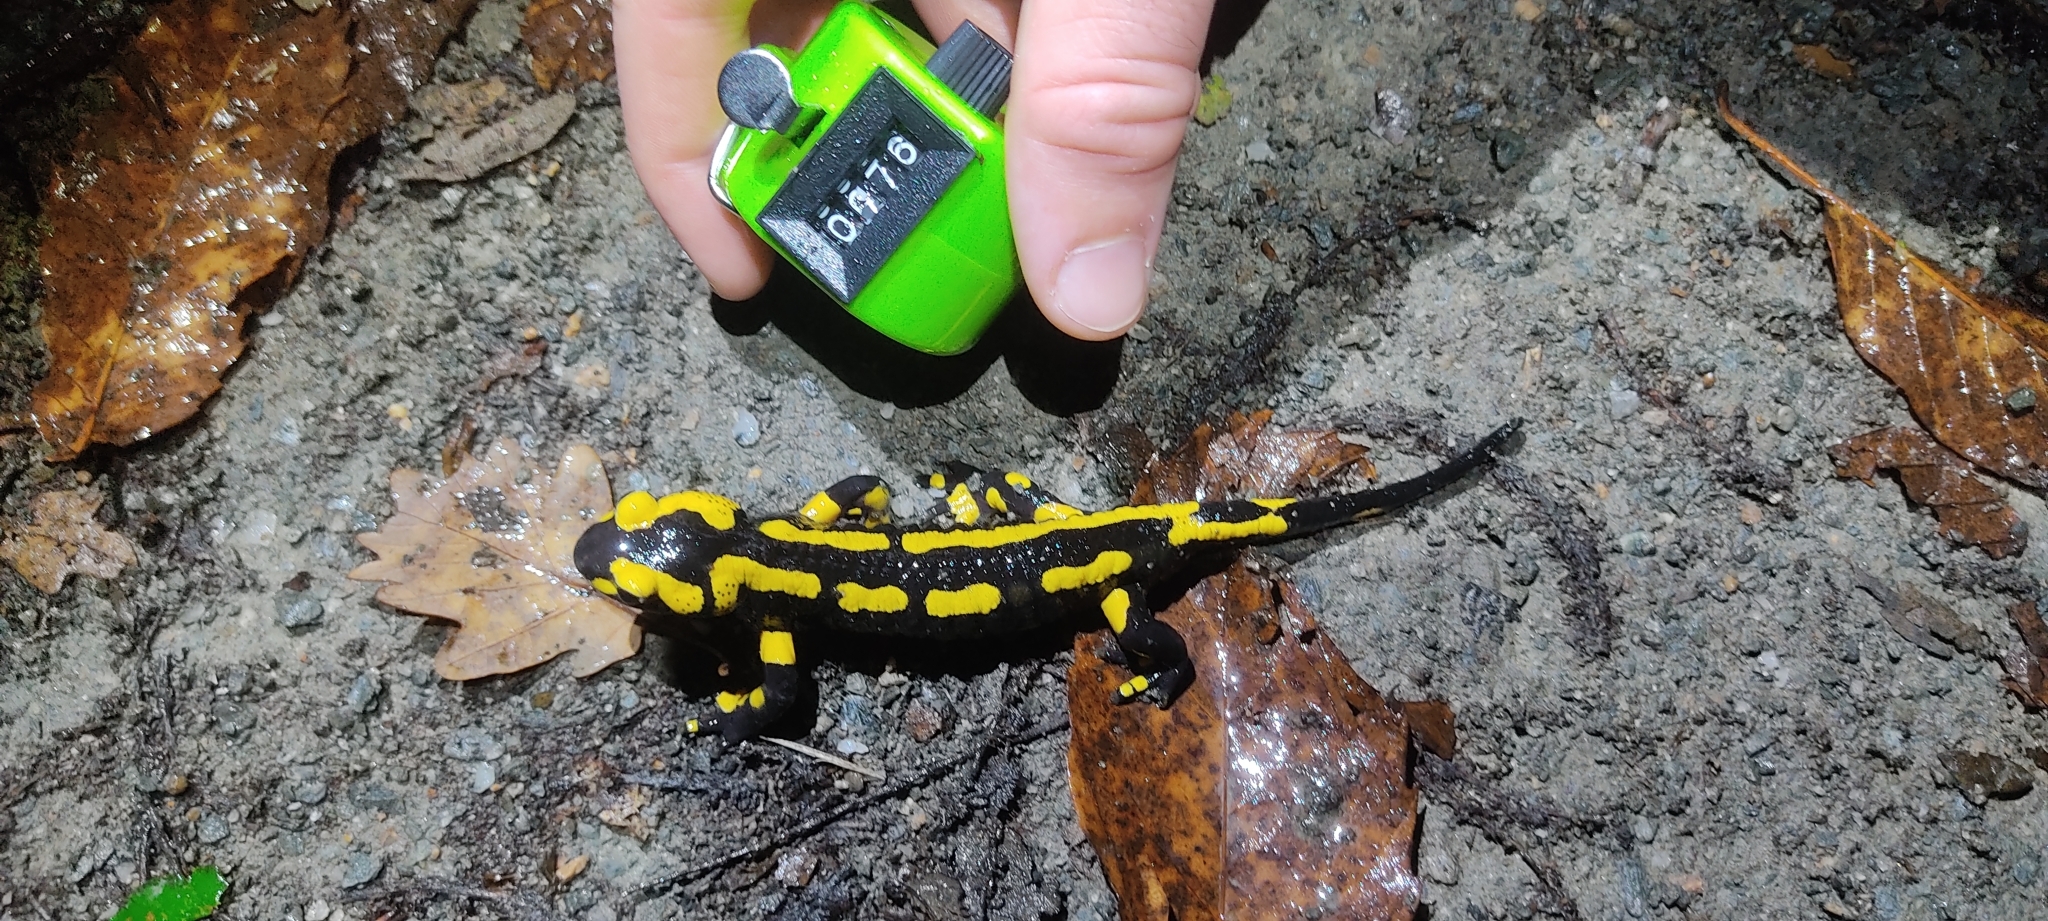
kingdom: Animalia
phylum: Chordata
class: Amphibia
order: Caudata
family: Salamandridae
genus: Salamandra
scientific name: Salamandra salamandra
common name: Fire salamander
